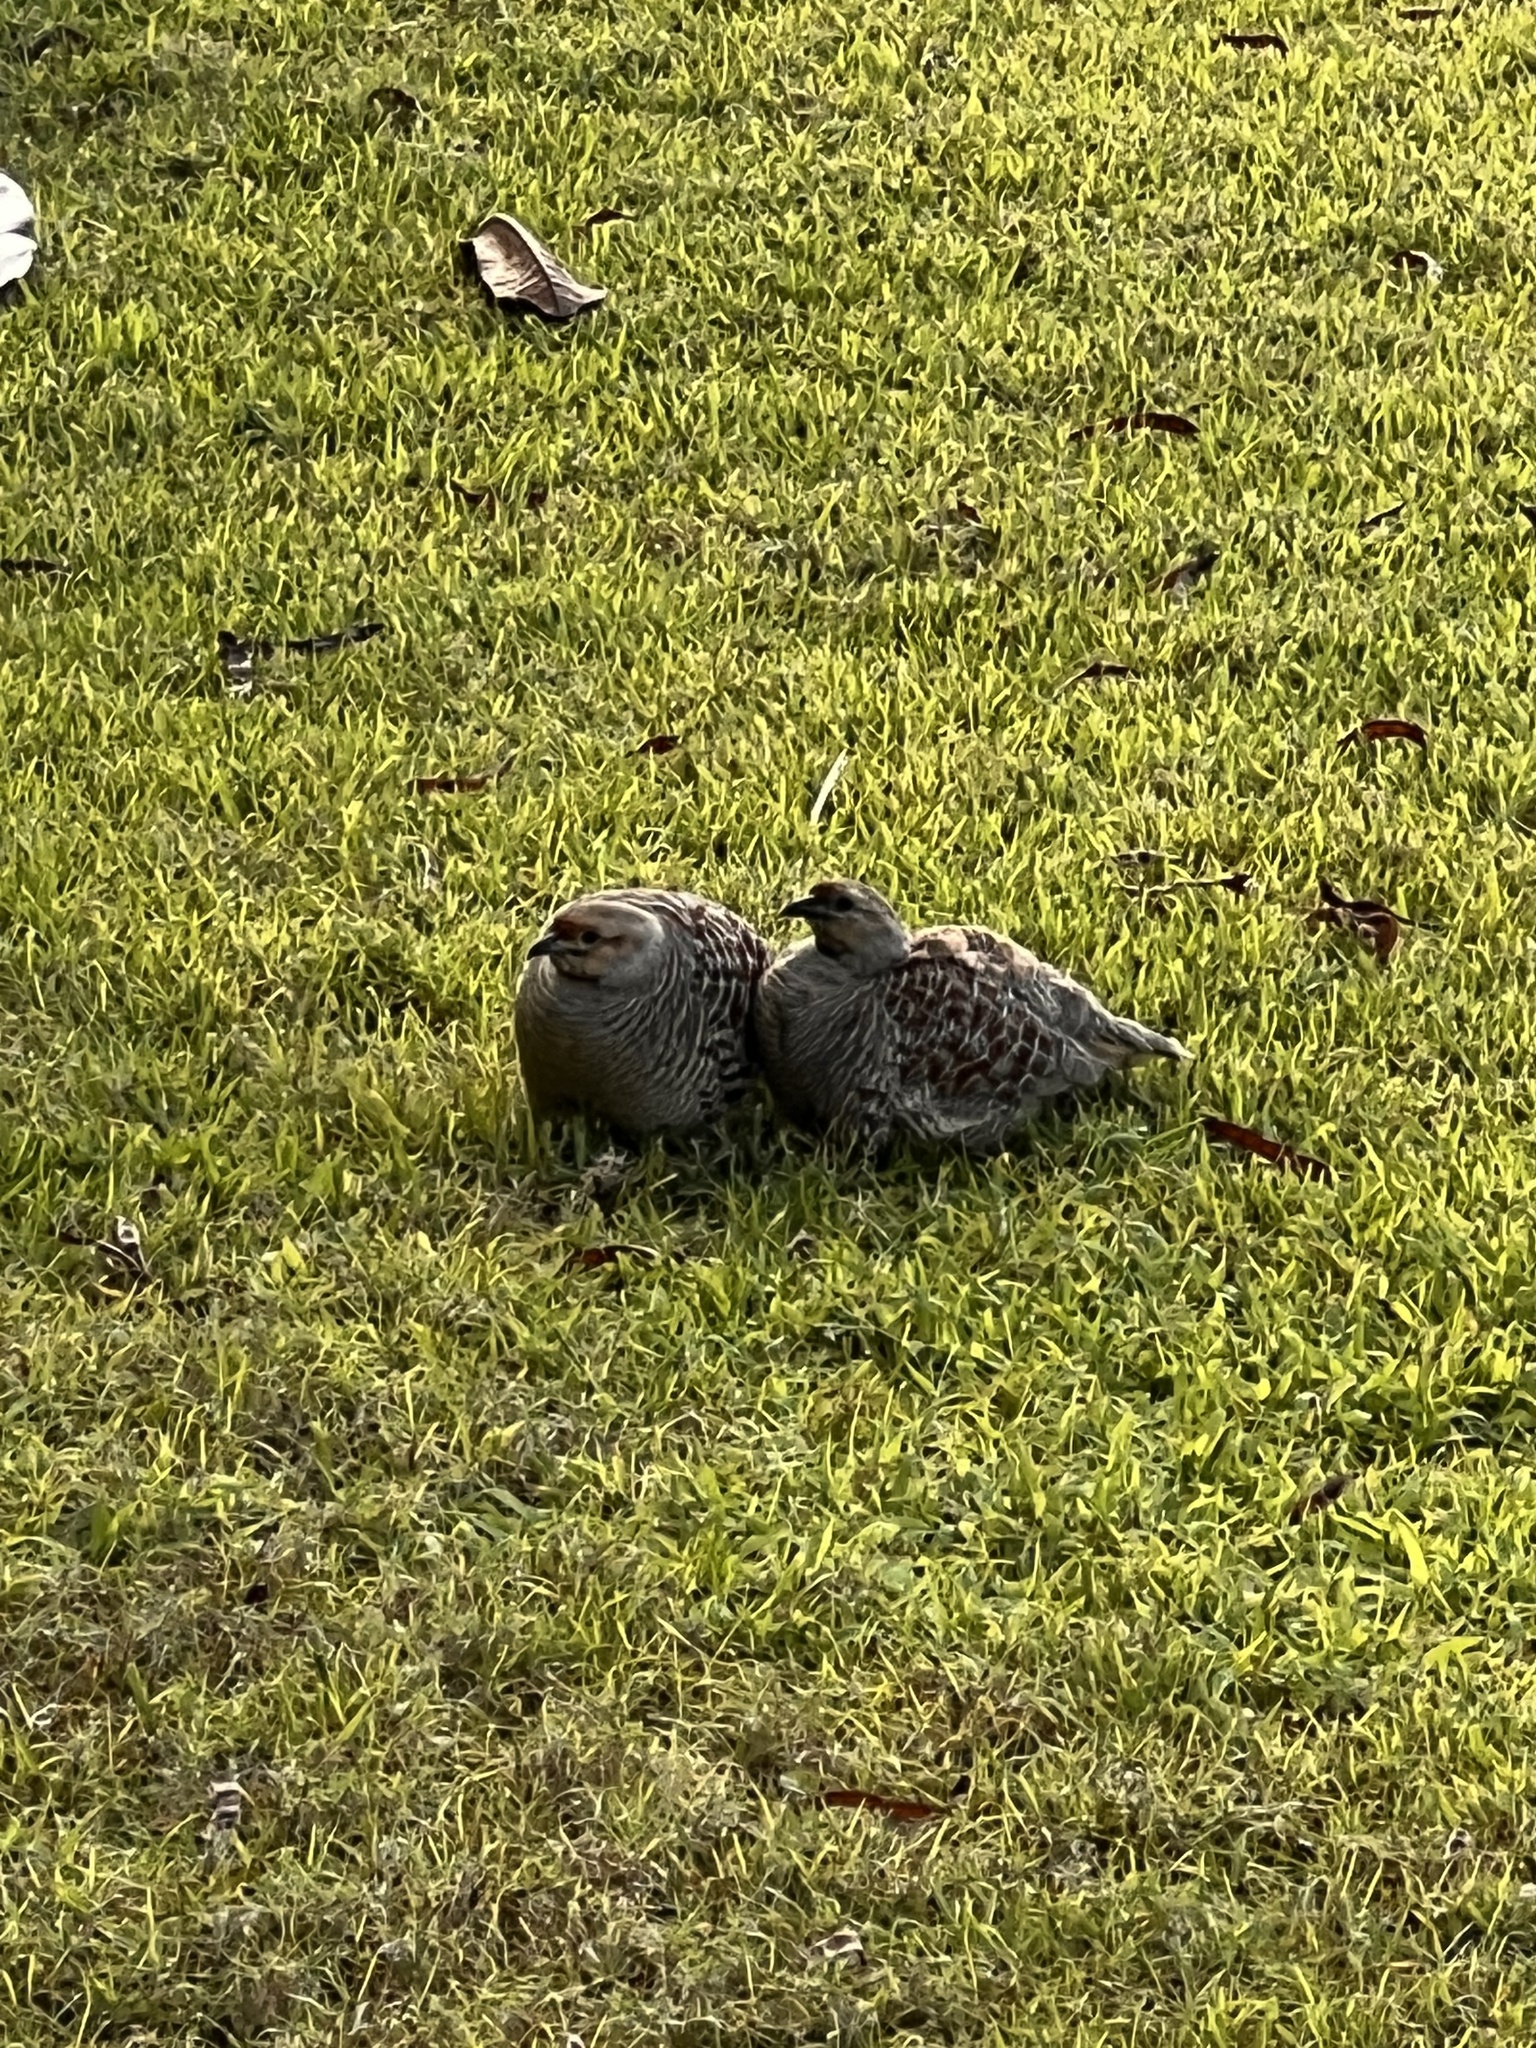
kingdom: Animalia
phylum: Chordata
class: Aves
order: Galliformes
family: Phasianidae
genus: Ortygornis
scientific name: Ortygornis pondicerianus
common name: Grey francolin
